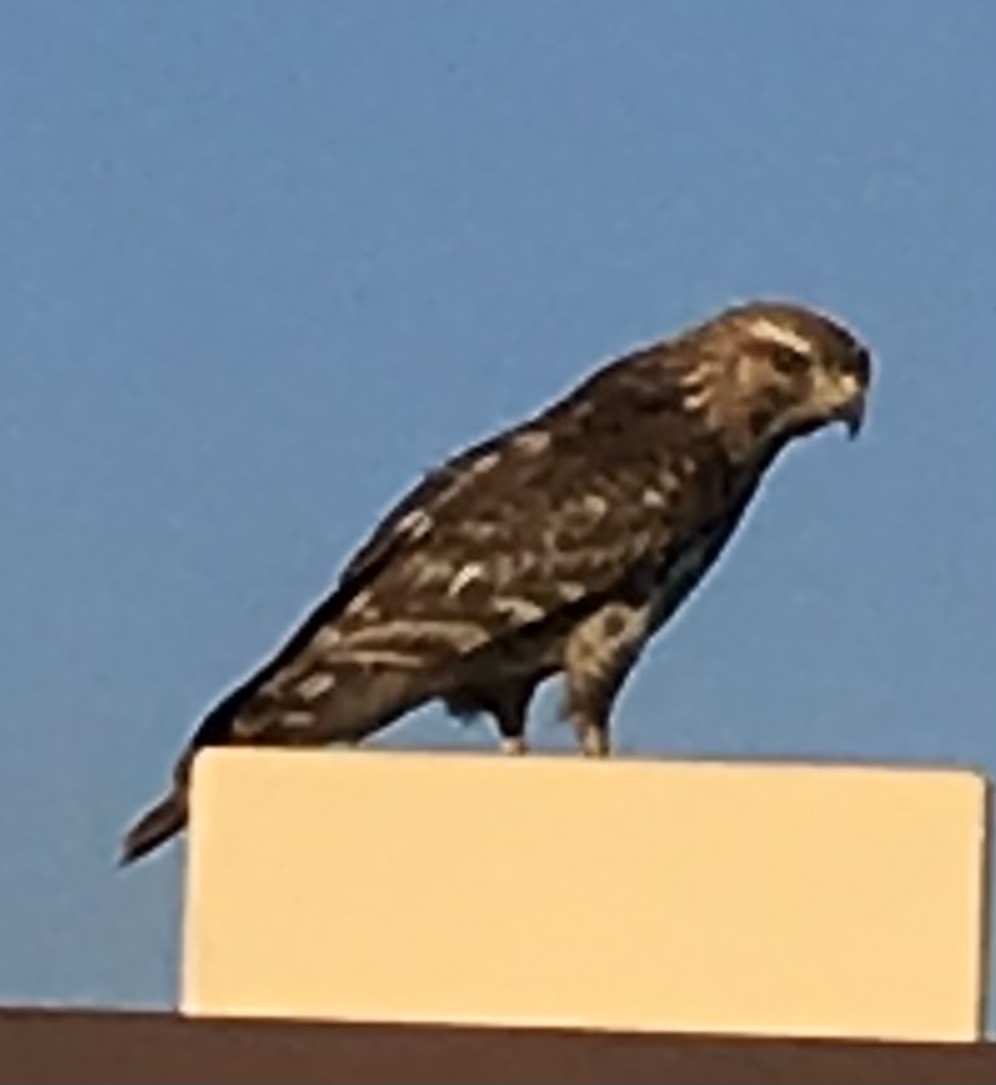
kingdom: Animalia
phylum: Chordata
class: Aves
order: Accipitriformes
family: Accipitridae
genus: Buteo
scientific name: Buteo lineatus
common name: Red-shouldered hawk
